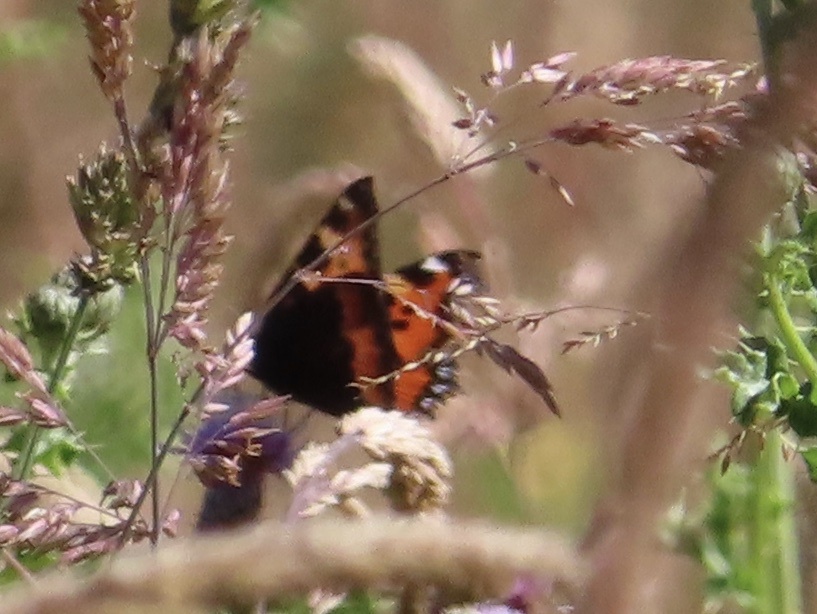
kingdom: Animalia
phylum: Arthropoda
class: Insecta
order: Lepidoptera
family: Nymphalidae
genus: Aglais
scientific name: Aglais urticae
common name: Small tortoiseshell
